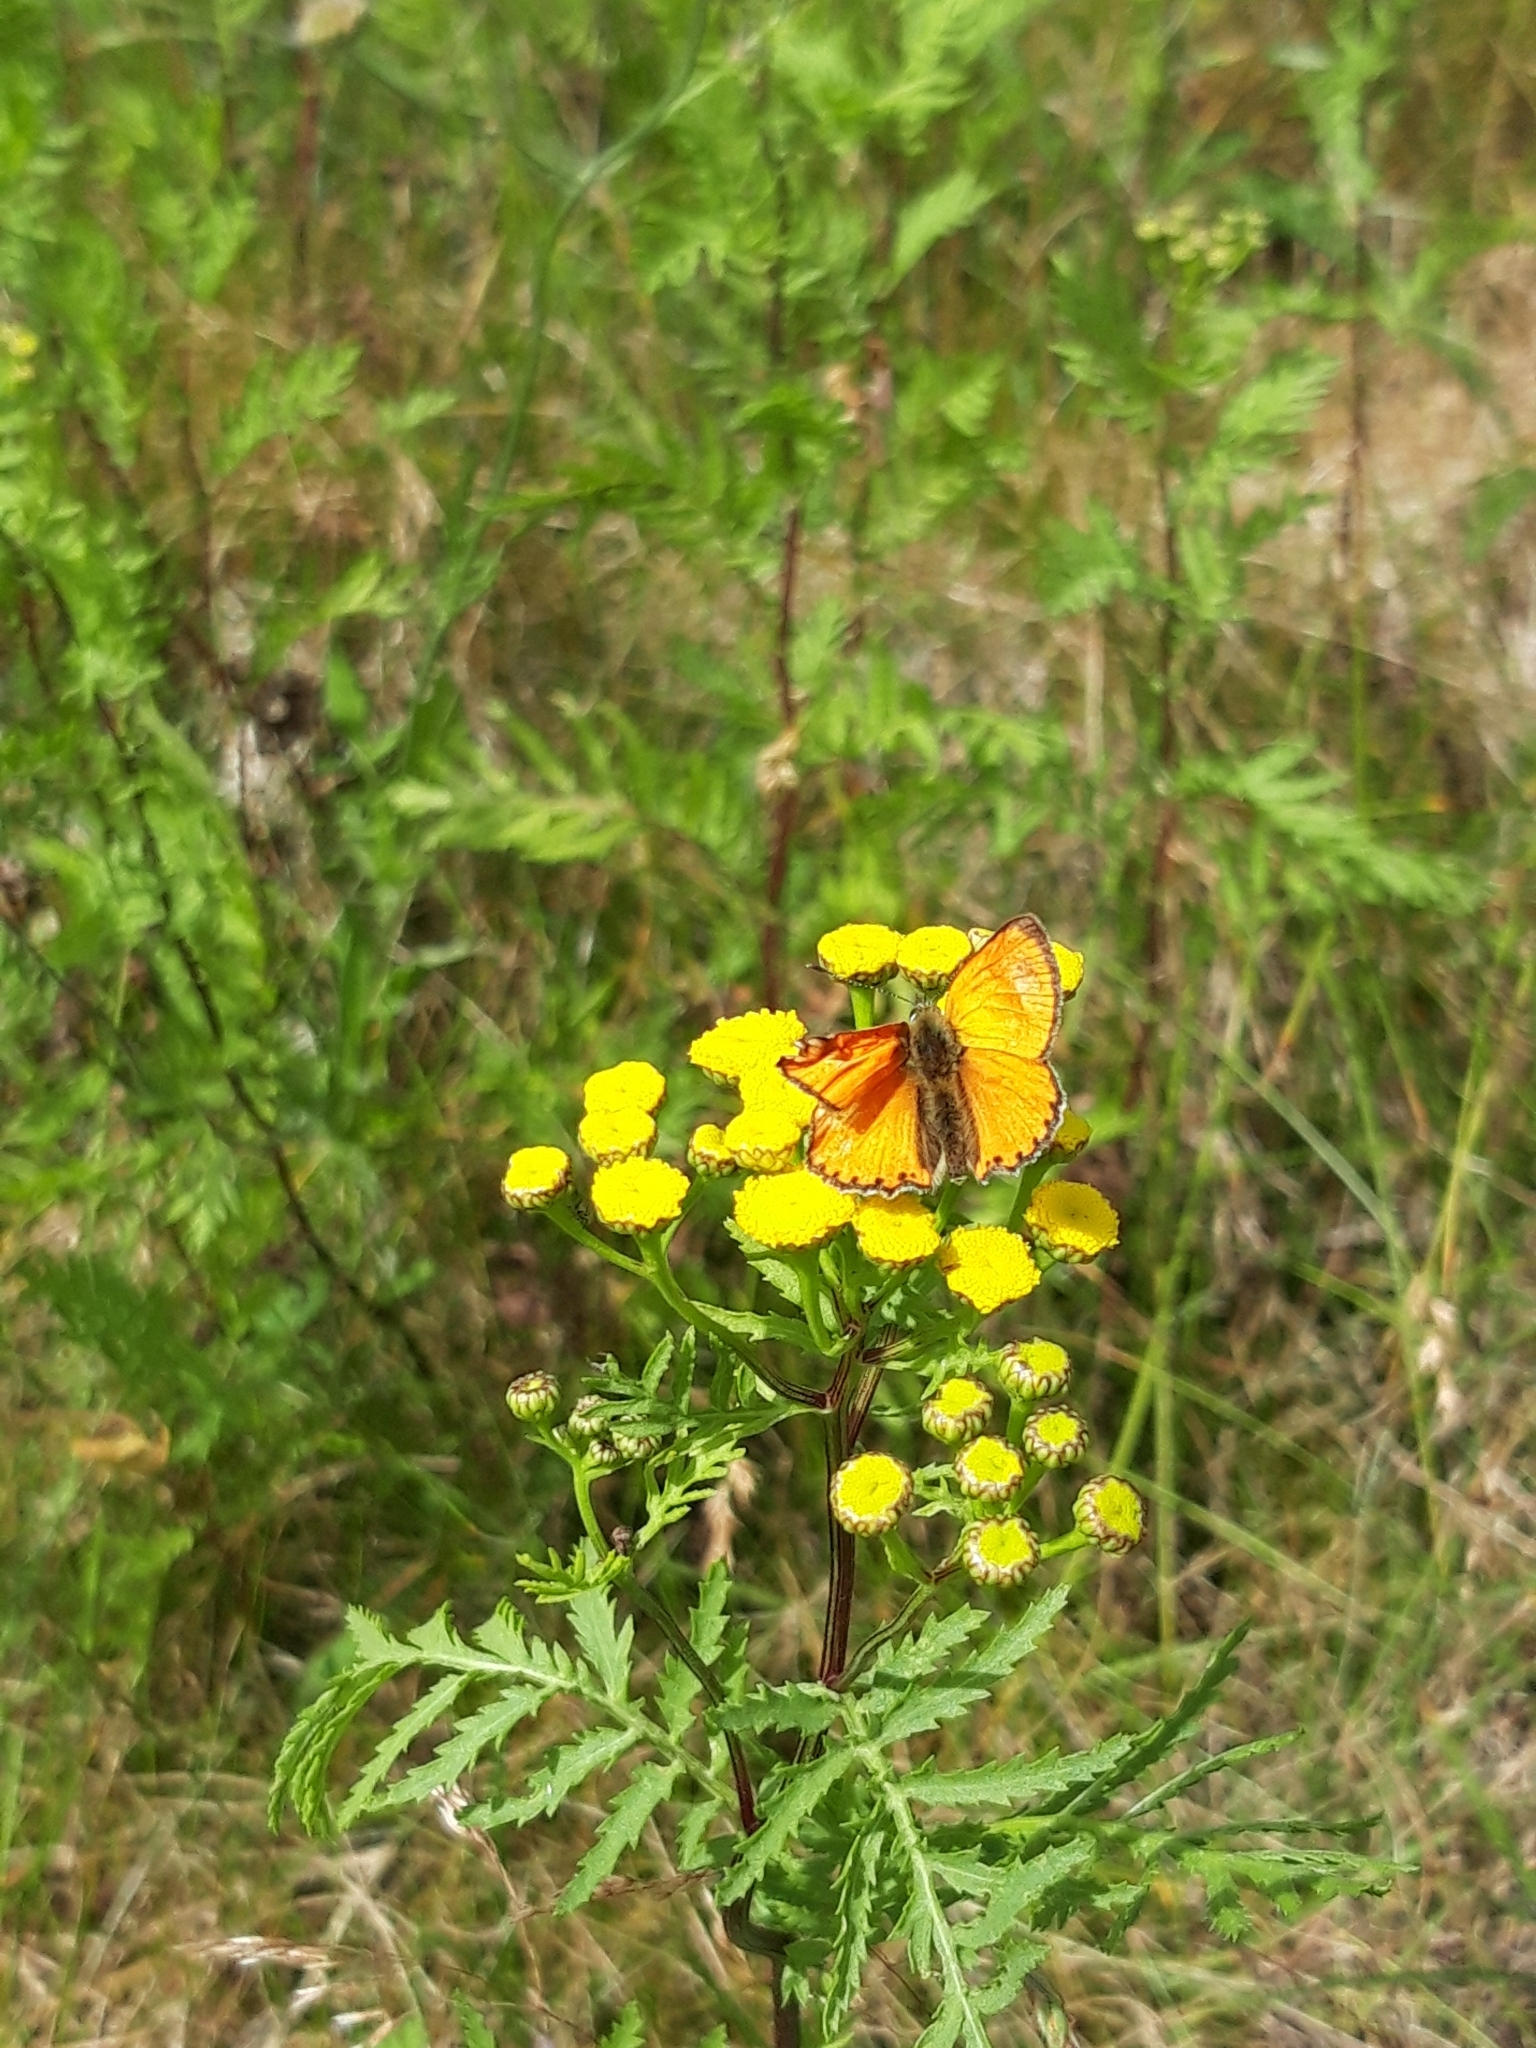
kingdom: Animalia
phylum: Arthropoda
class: Insecta
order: Lepidoptera
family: Lycaenidae
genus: Lycaena
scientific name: Lycaena virgaureae
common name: Scarce copper
